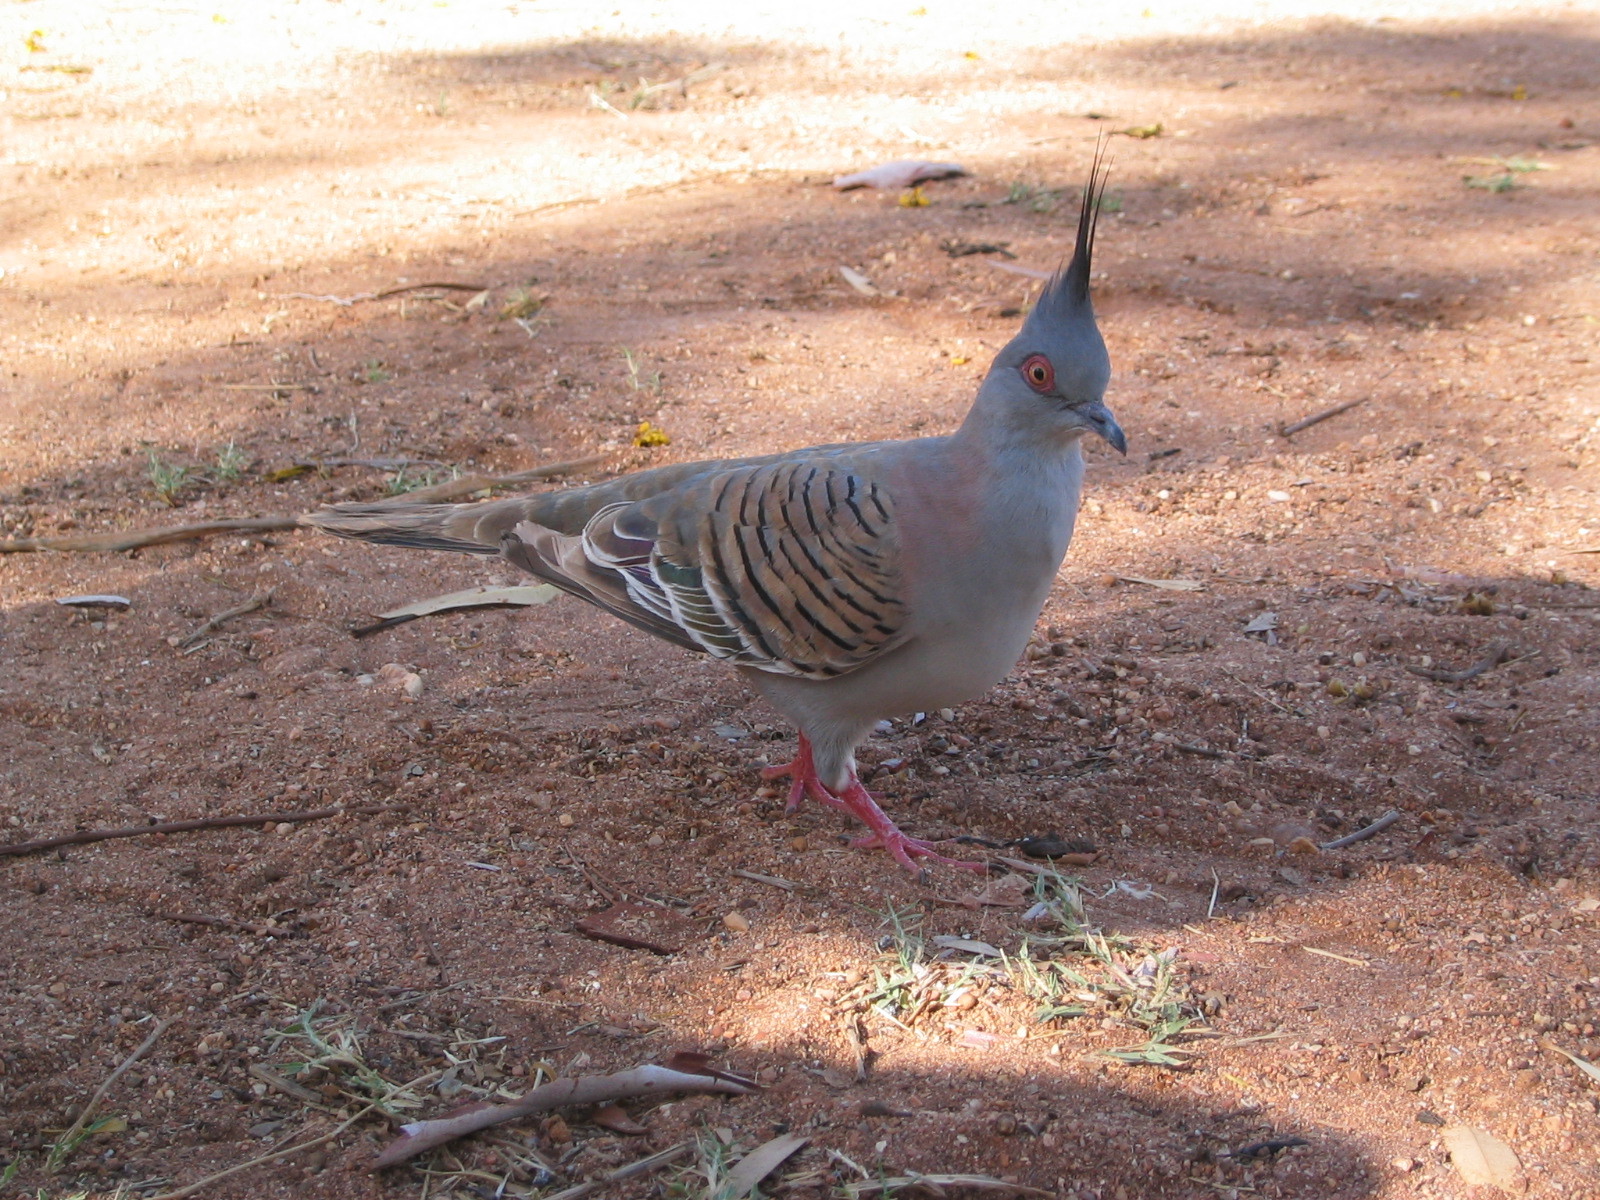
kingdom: Animalia
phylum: Chordata
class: Aves
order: Columbiformes
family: Columbidae
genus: Ocyphaps
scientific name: Ocyphaps lophotes
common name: Crested pigeon
